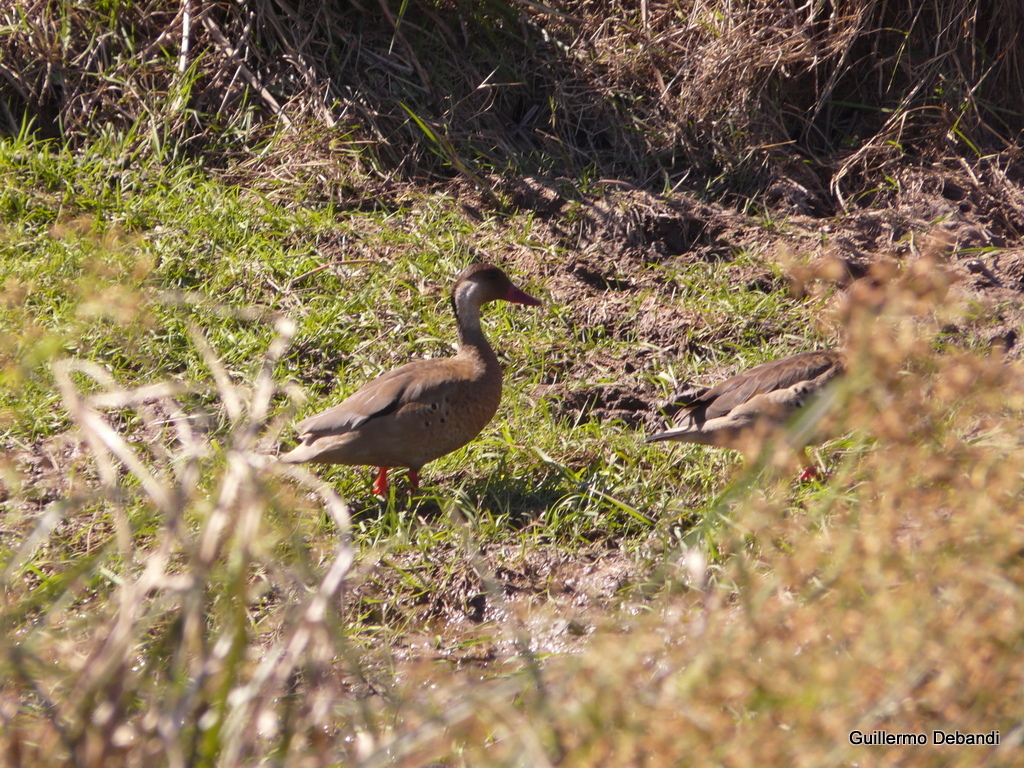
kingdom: Animalia
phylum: Chordata
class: Aves
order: Anseriformes
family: Anatidae
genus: Amazonetta
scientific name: Amazonetta brasiliensis
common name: Brazilian teal
